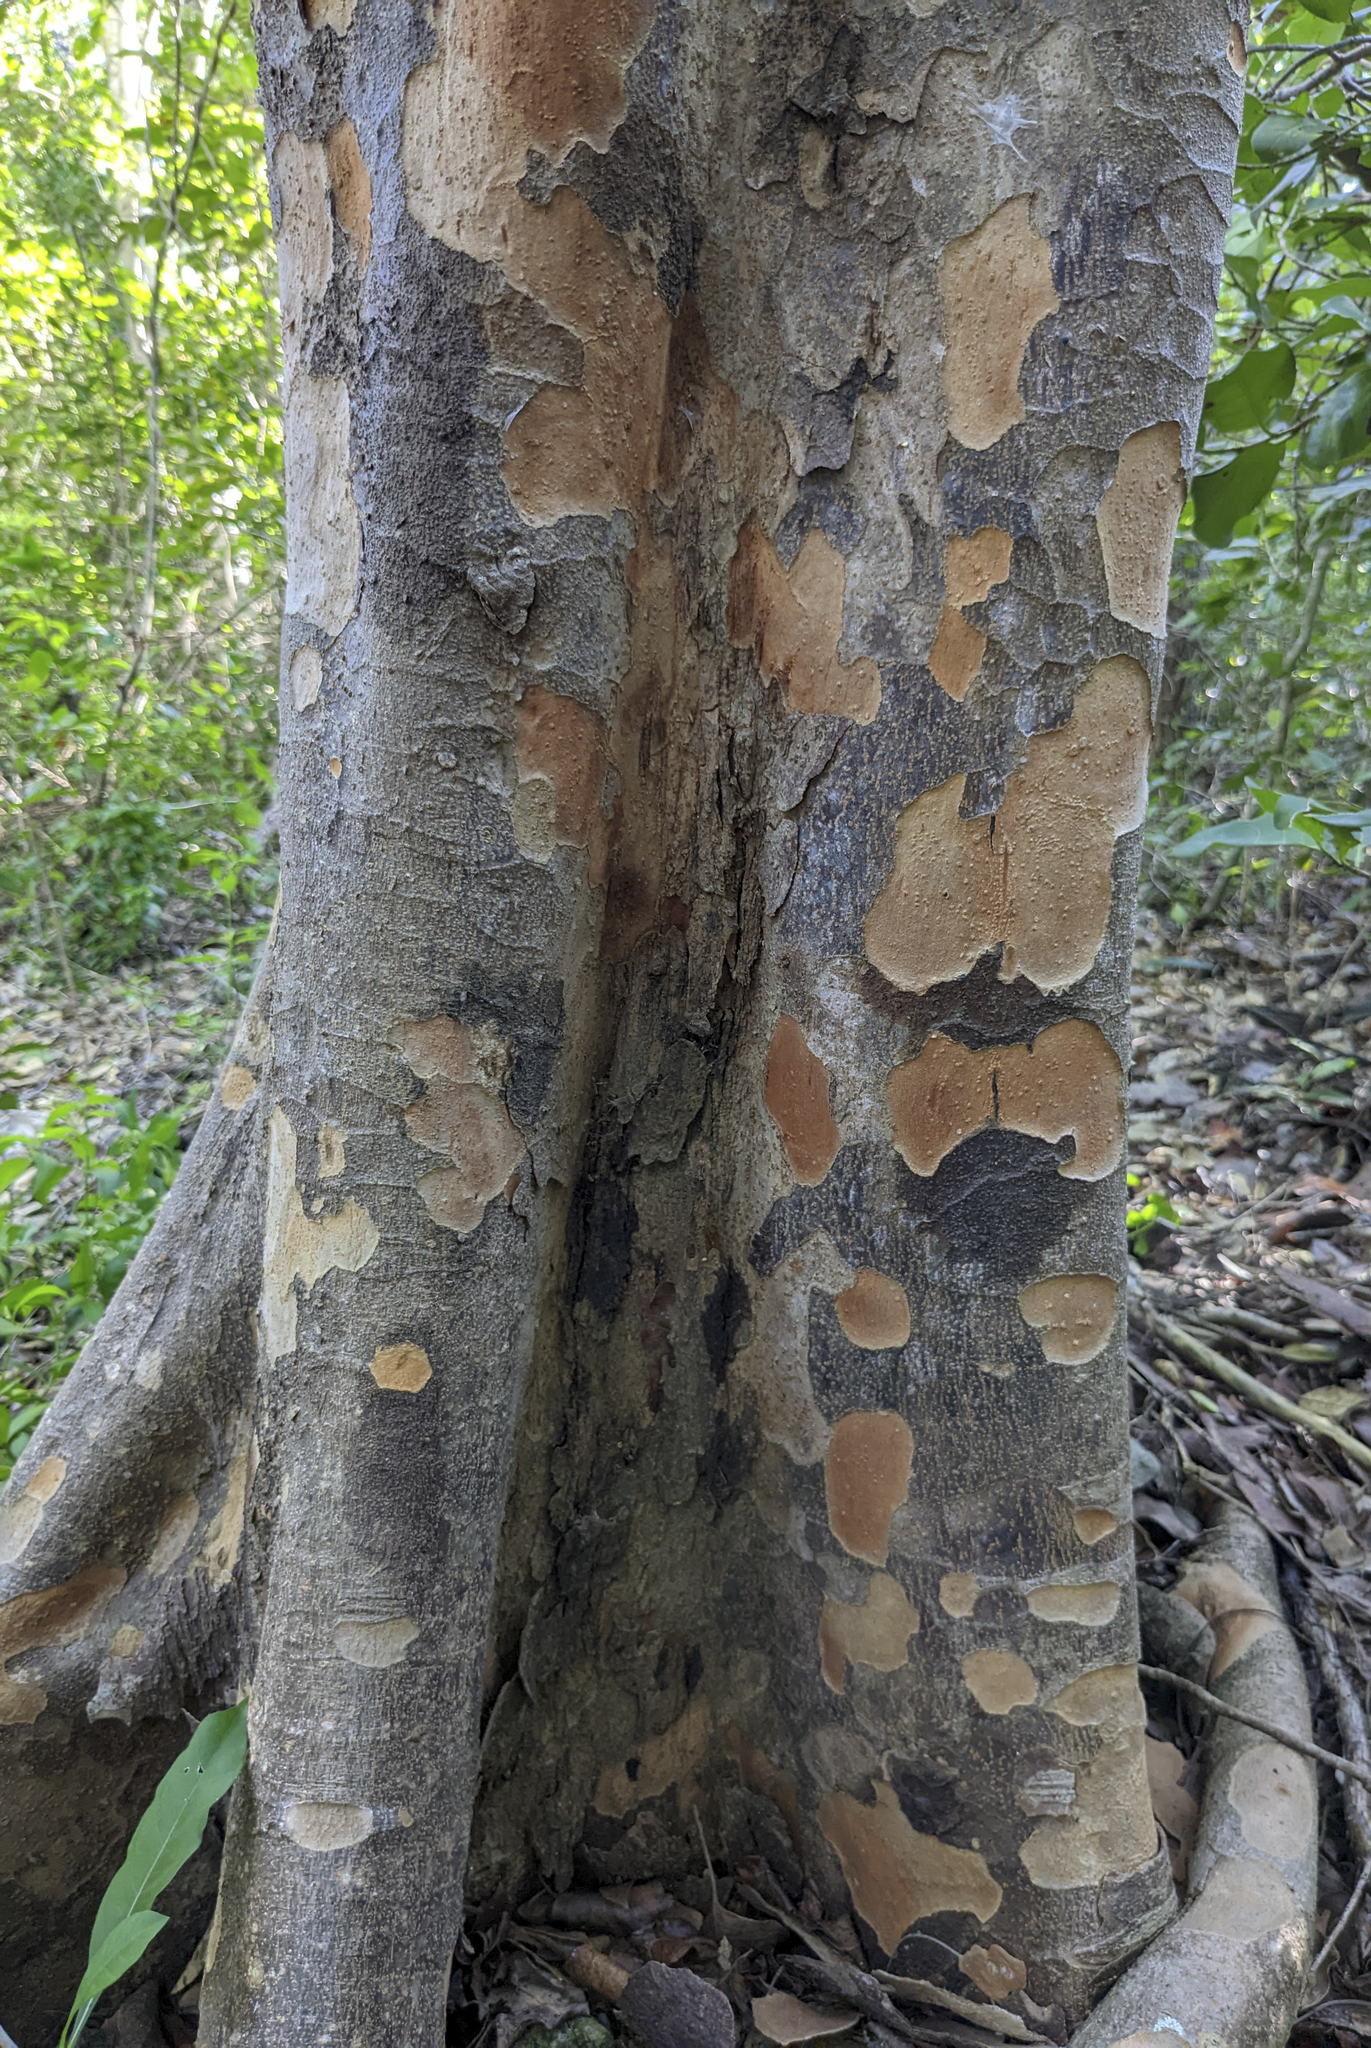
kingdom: Plantae
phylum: Tracheophyta
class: Magnoliopsida
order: Sapindales
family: Anacardiaceae
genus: Metopium
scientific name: Metopium toxiferum
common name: Florida poisontree
